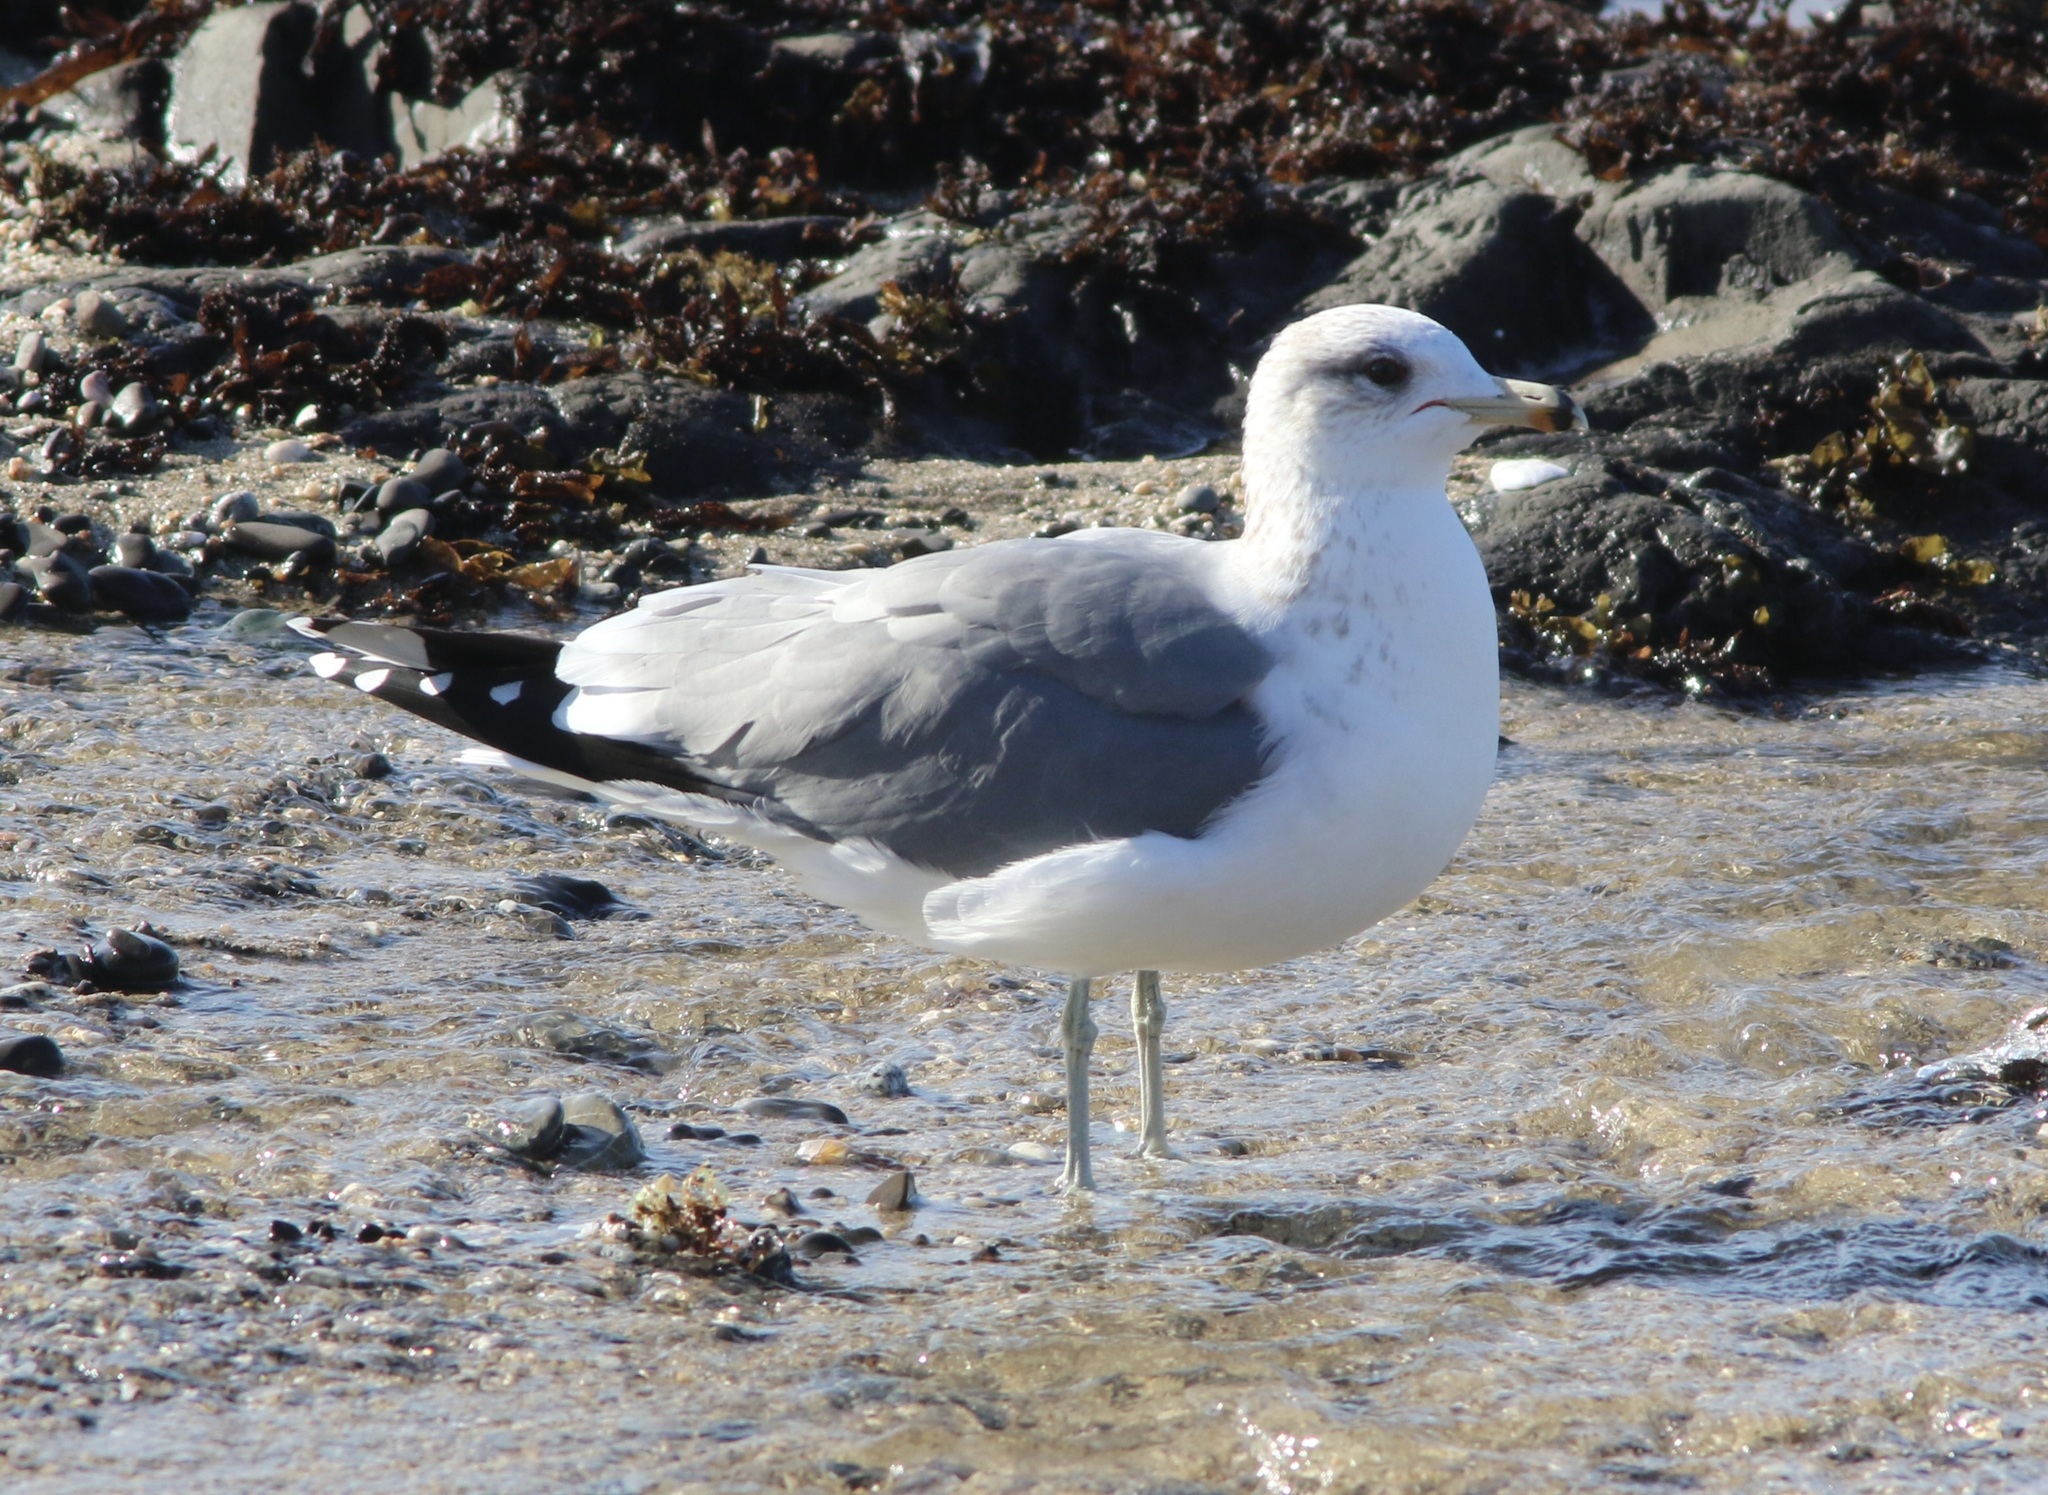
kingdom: Animalia
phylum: Chordata
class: Aves
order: Charadriiformes
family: Laridae
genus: Larus
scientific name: Larus californicus
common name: California gull
